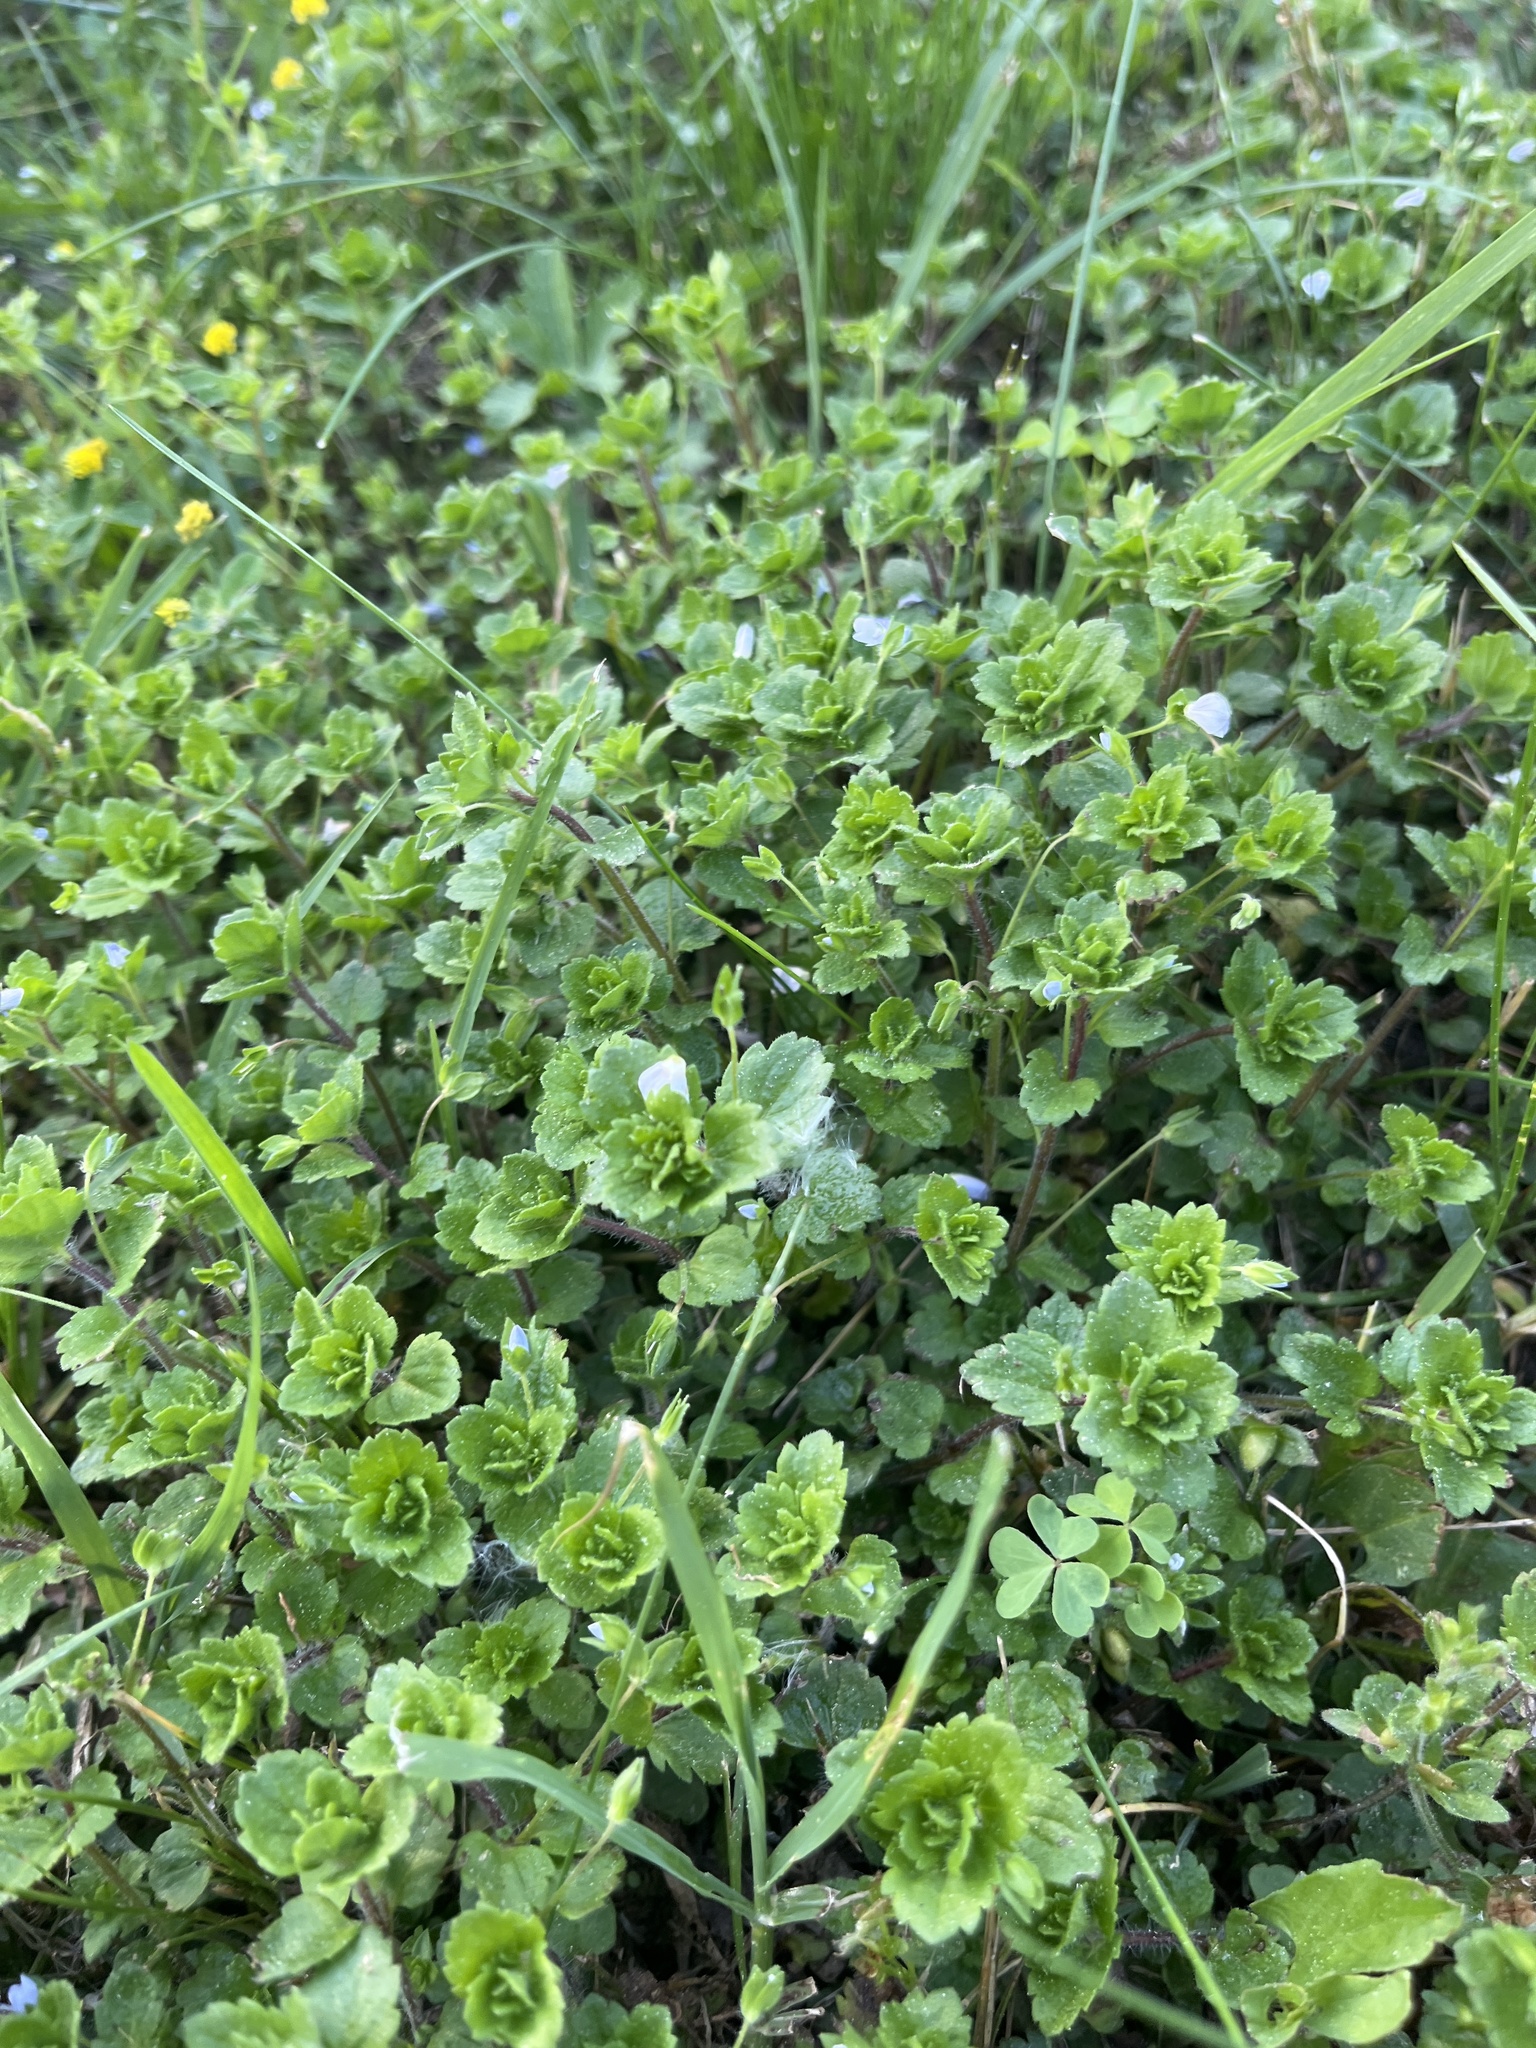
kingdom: Plantae
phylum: Tracheophyta
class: Magnoliopsida
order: Lamiales
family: Plantaginaceae
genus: Veronica
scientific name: Veronica persica
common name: Common field-speedwell
